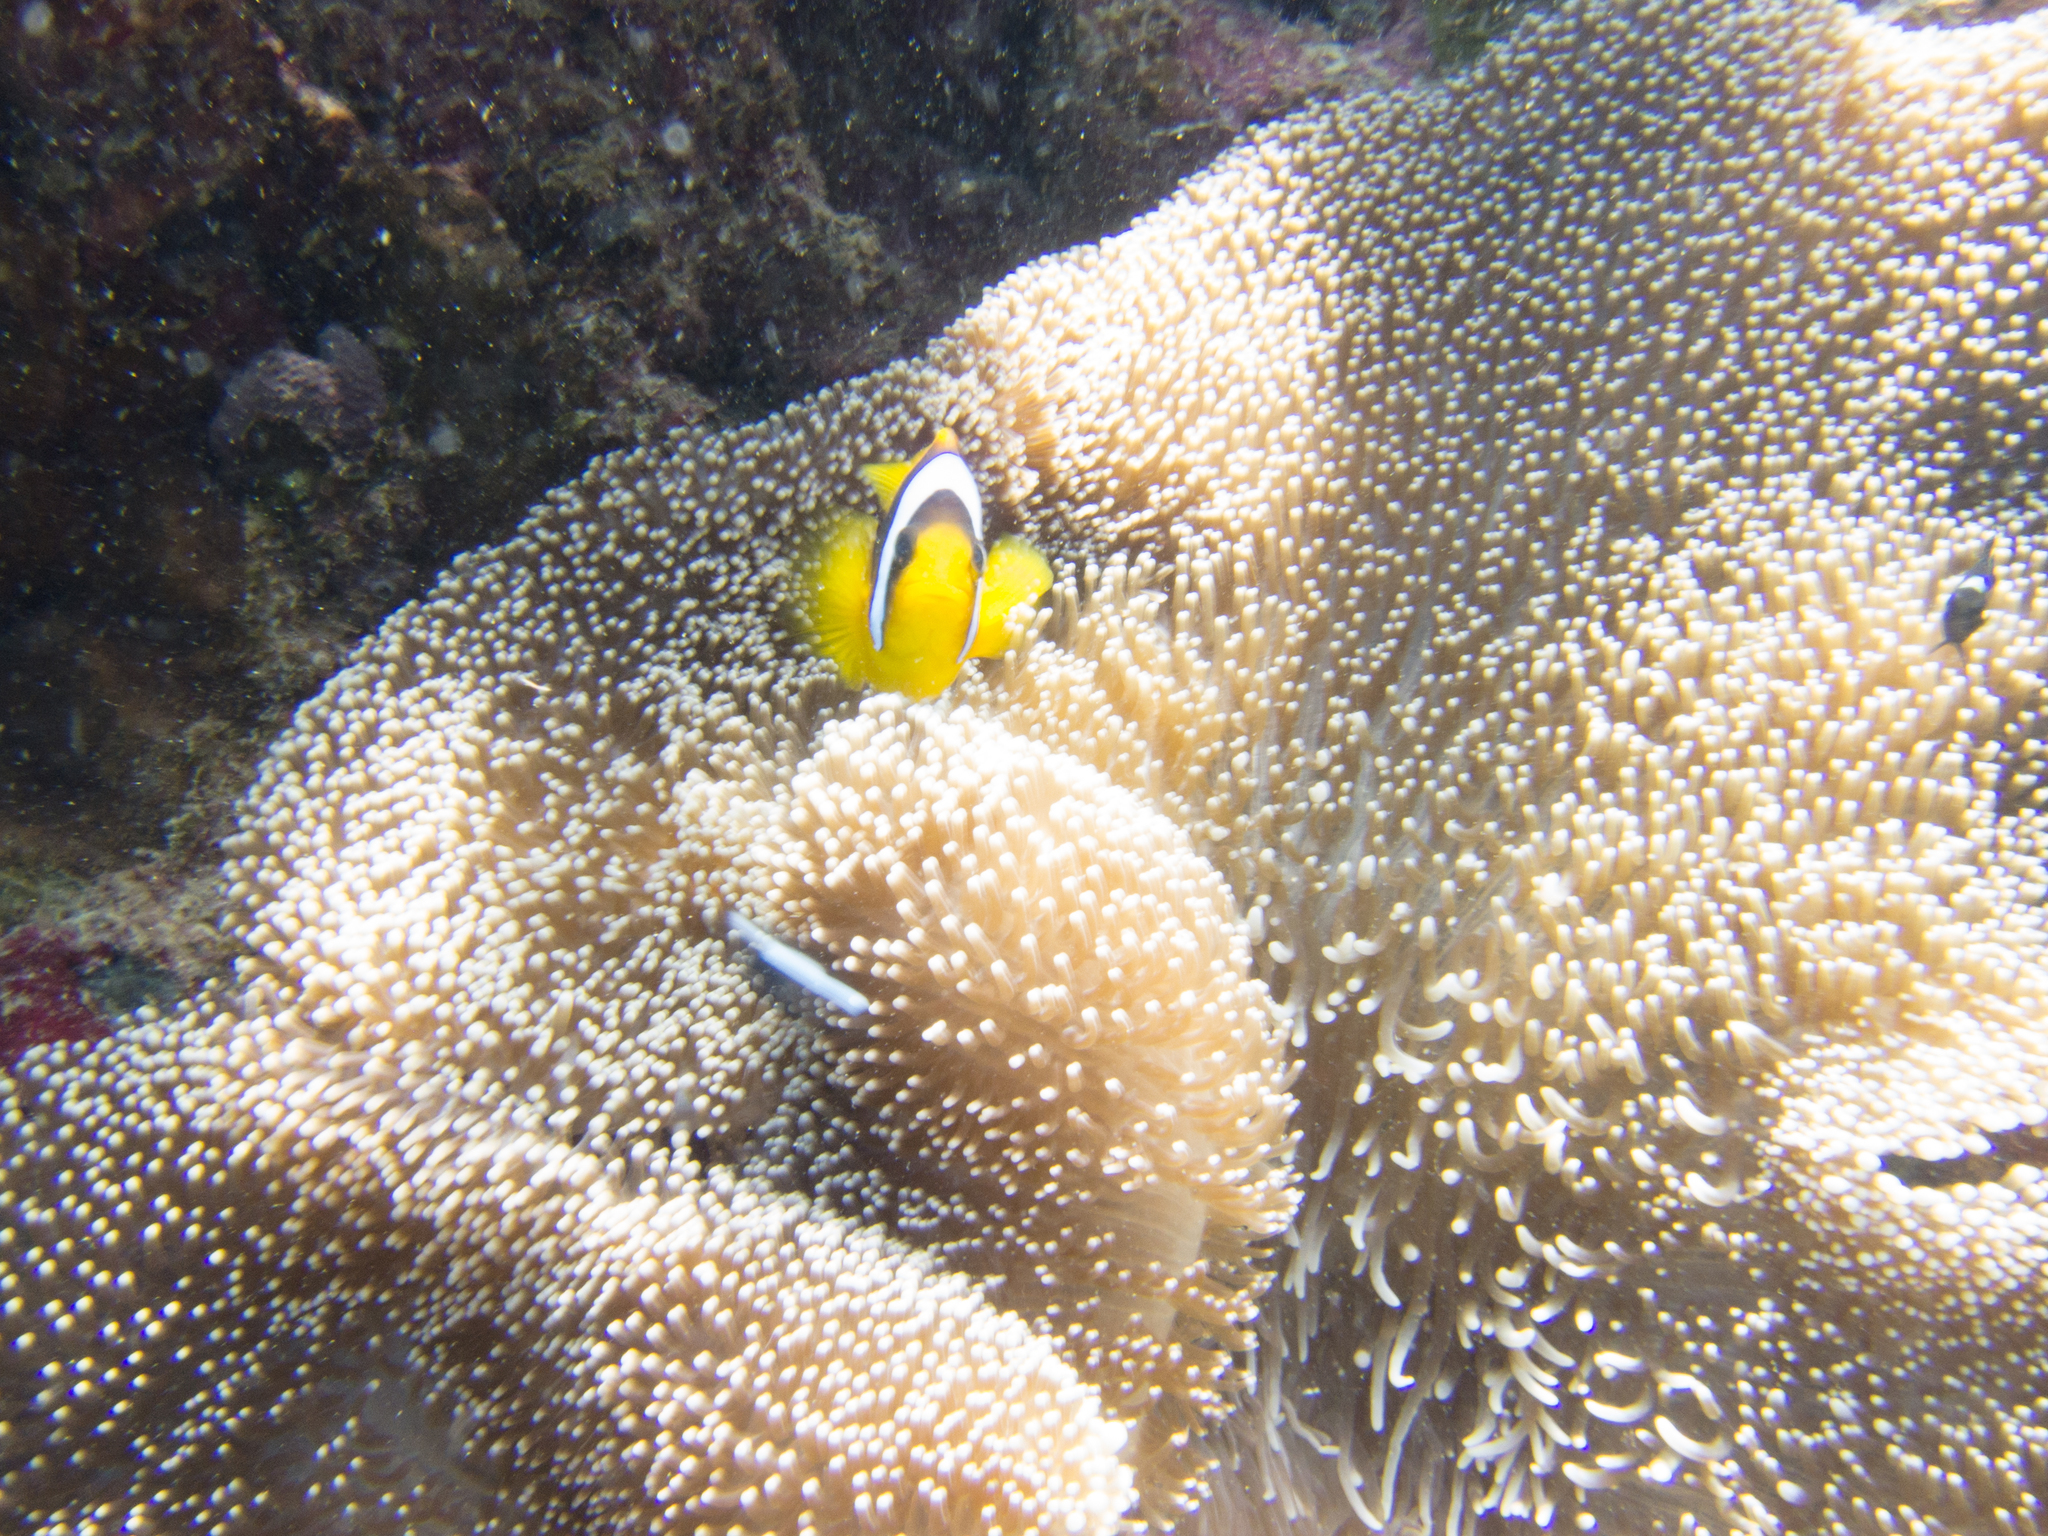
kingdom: Animalia
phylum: Cnidaria
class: Anthozoa
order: Actiniaria
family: Stichodactylidae
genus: Stichodactyla
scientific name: Stichodactyla mertensii
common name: Merten's sea anemone
